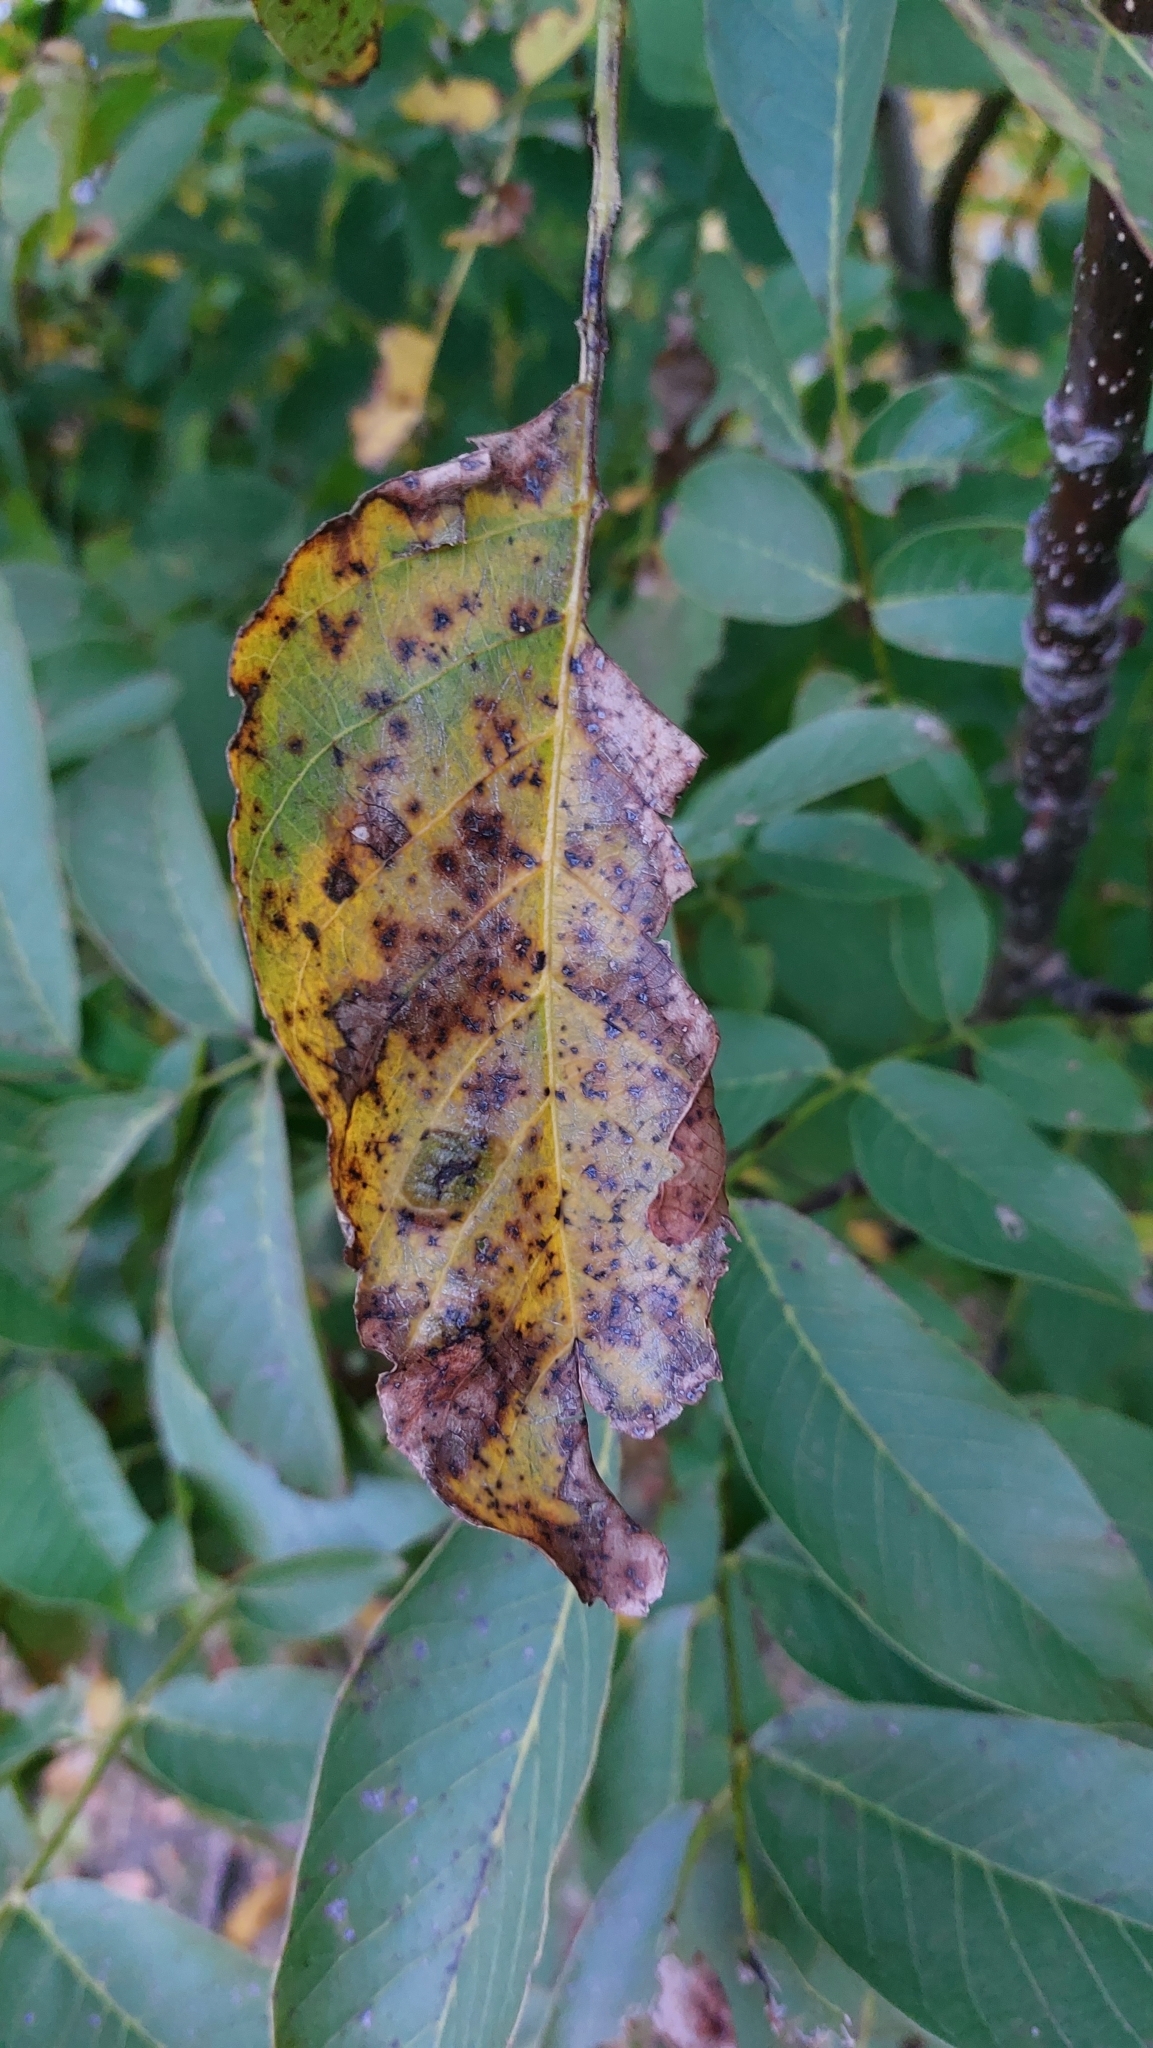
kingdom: Plantae
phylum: Tracheophyta
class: Magnoliopsida
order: Fagales
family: Juglandaceae
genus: Juglans
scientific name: Juglans regia
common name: Walnut
